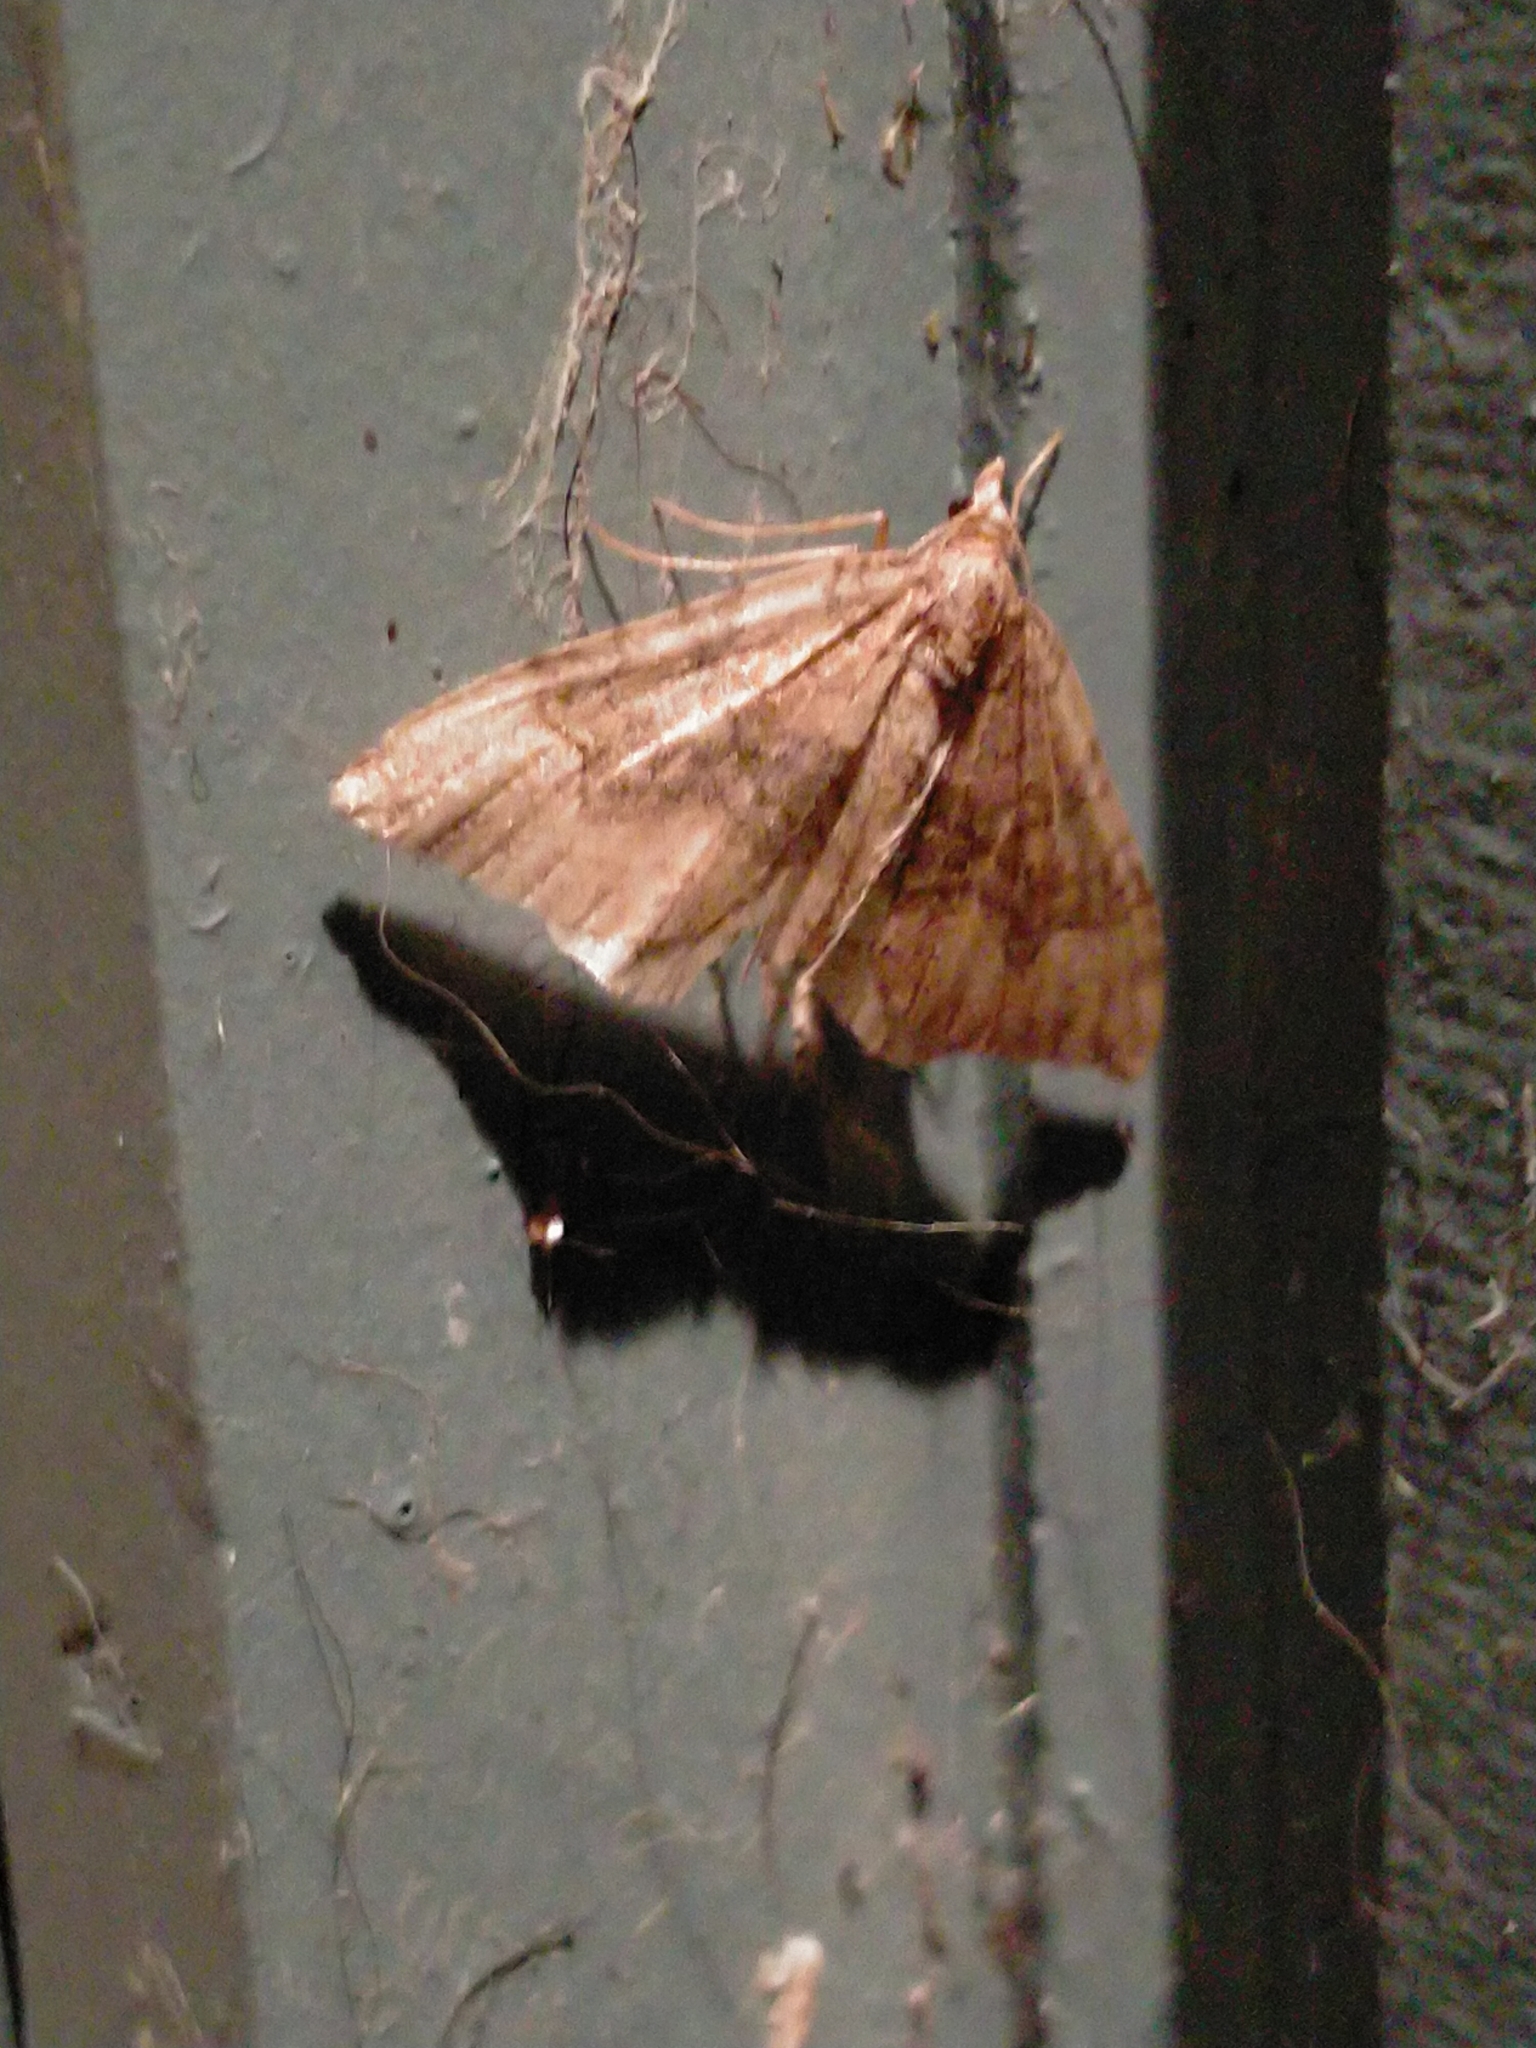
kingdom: Animalia
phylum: Arthropoda
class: Insecta
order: Lepidoptera
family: Geometridae
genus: Epyaxa
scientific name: Epyaxa rosearia
